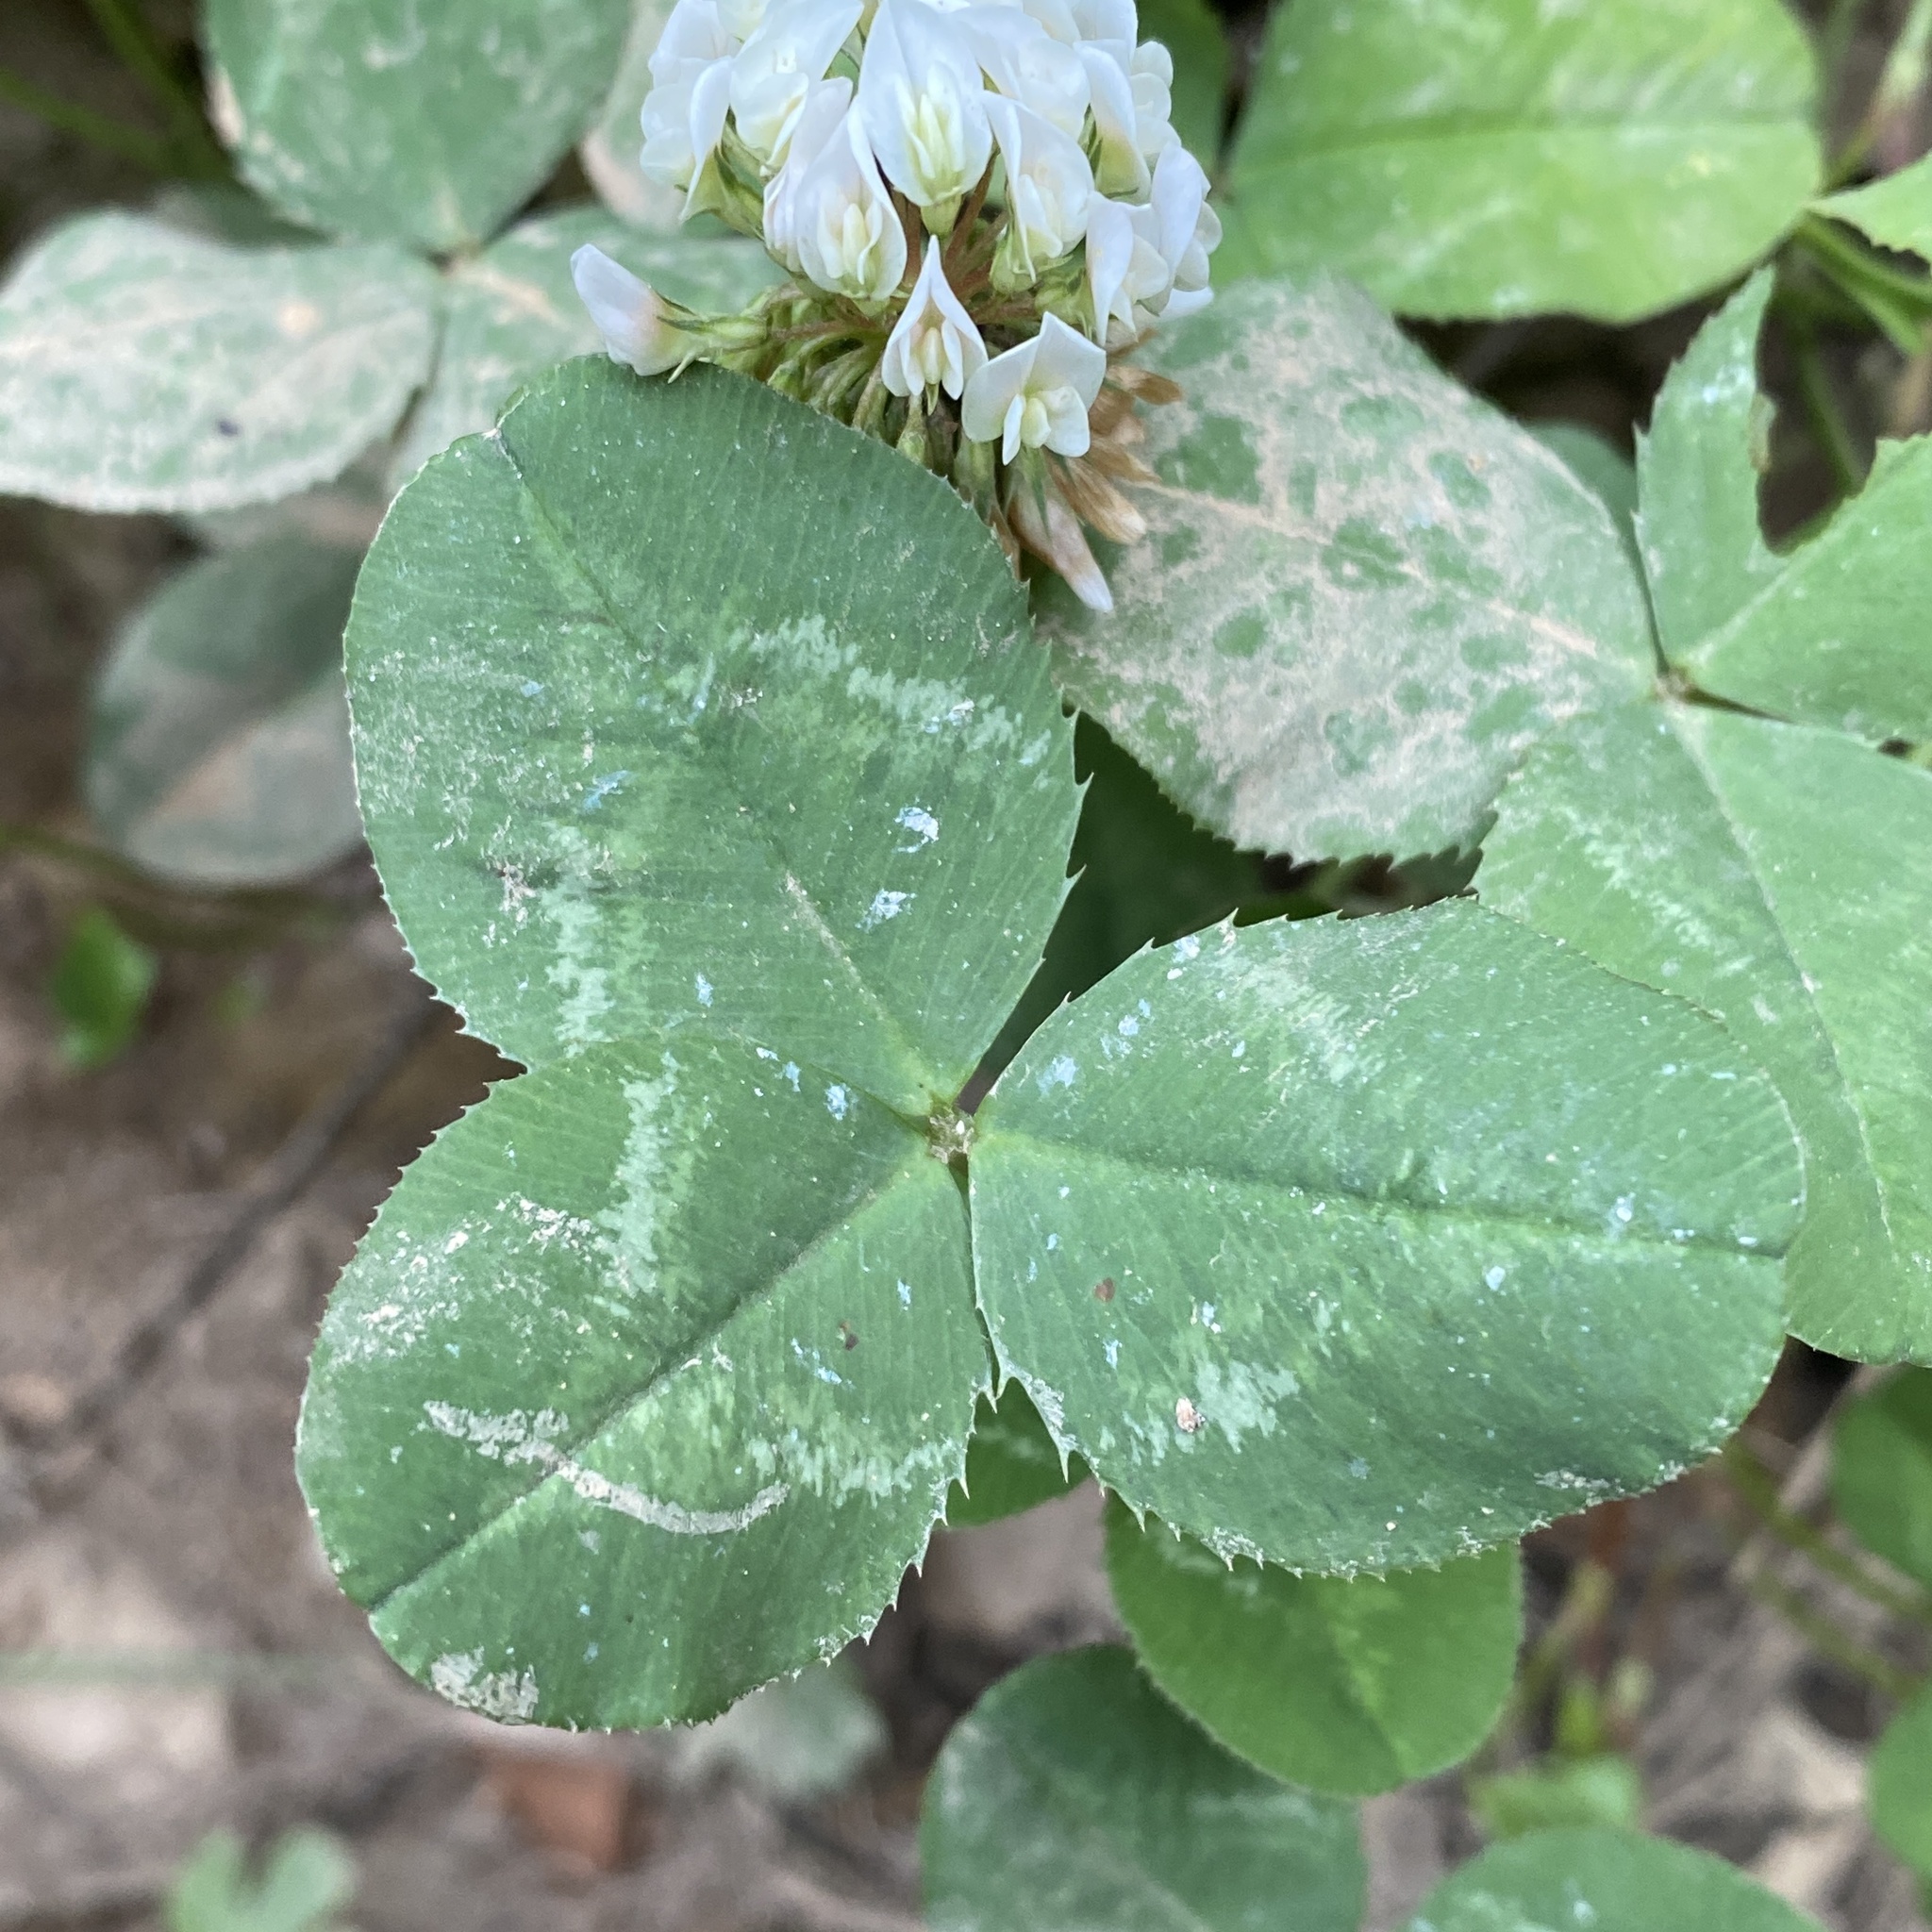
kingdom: Plantae
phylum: Tracheophyta
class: Magnoliopsida
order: Fabales
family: Fabaceae
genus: Trifolium
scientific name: Trifolium repens
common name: White clover
